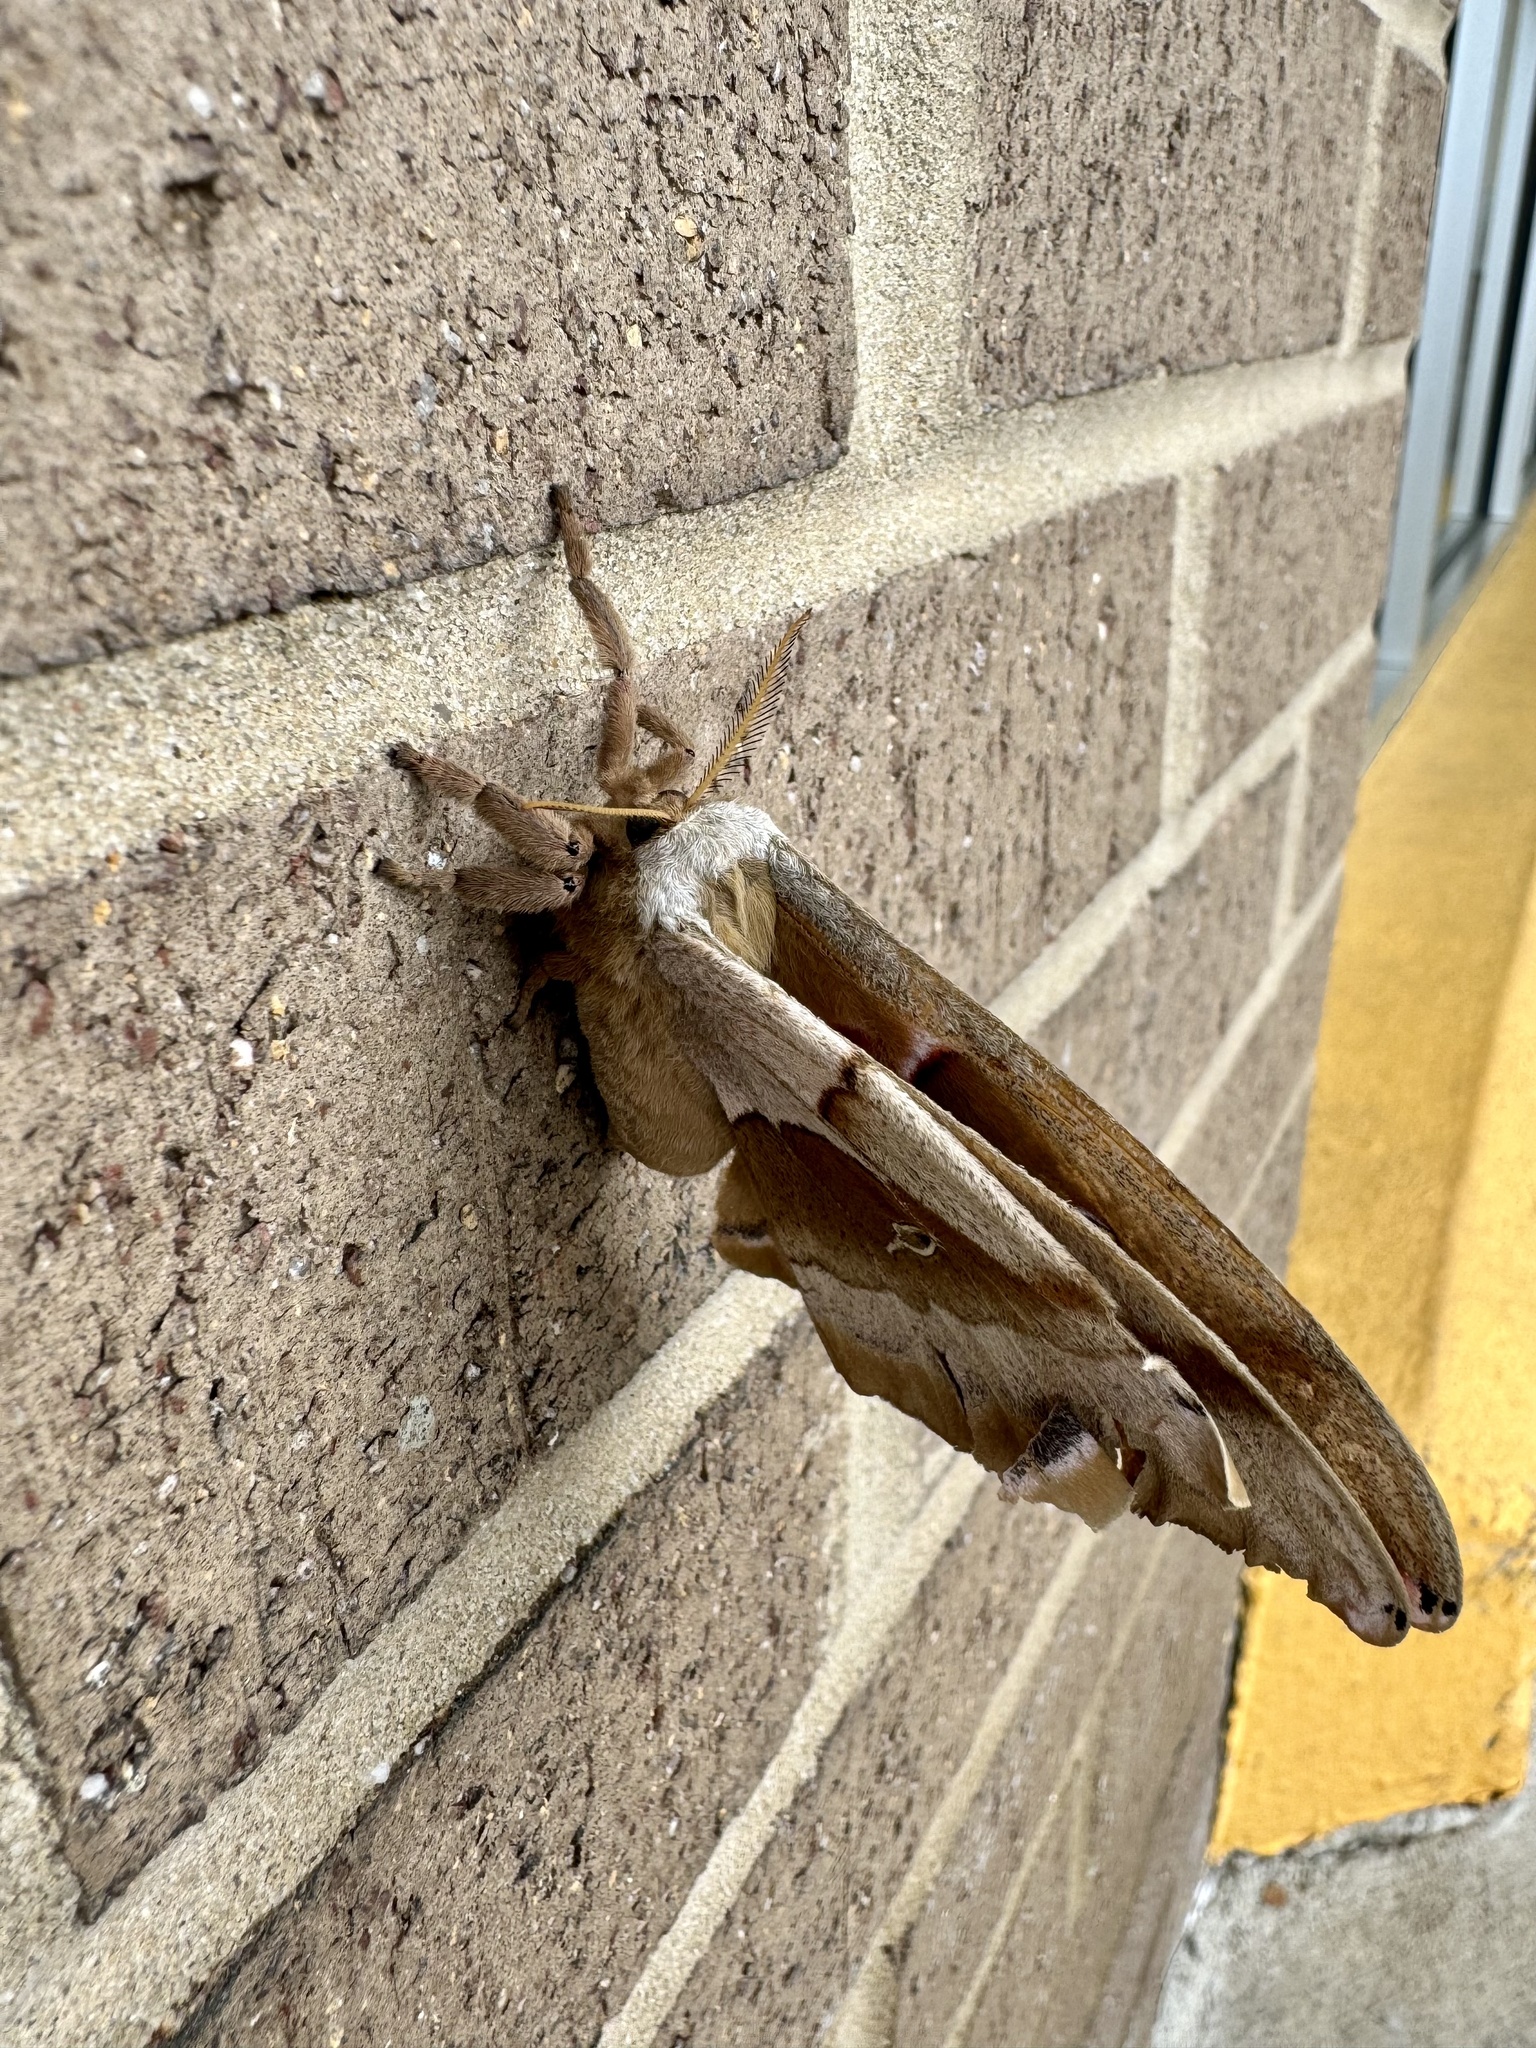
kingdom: Animalia
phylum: Arthropoda
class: Insecta
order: Lepidoptera
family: Saturniidae
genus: Antheraea
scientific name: Antheraea polyphemus
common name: Polyphemus moth
